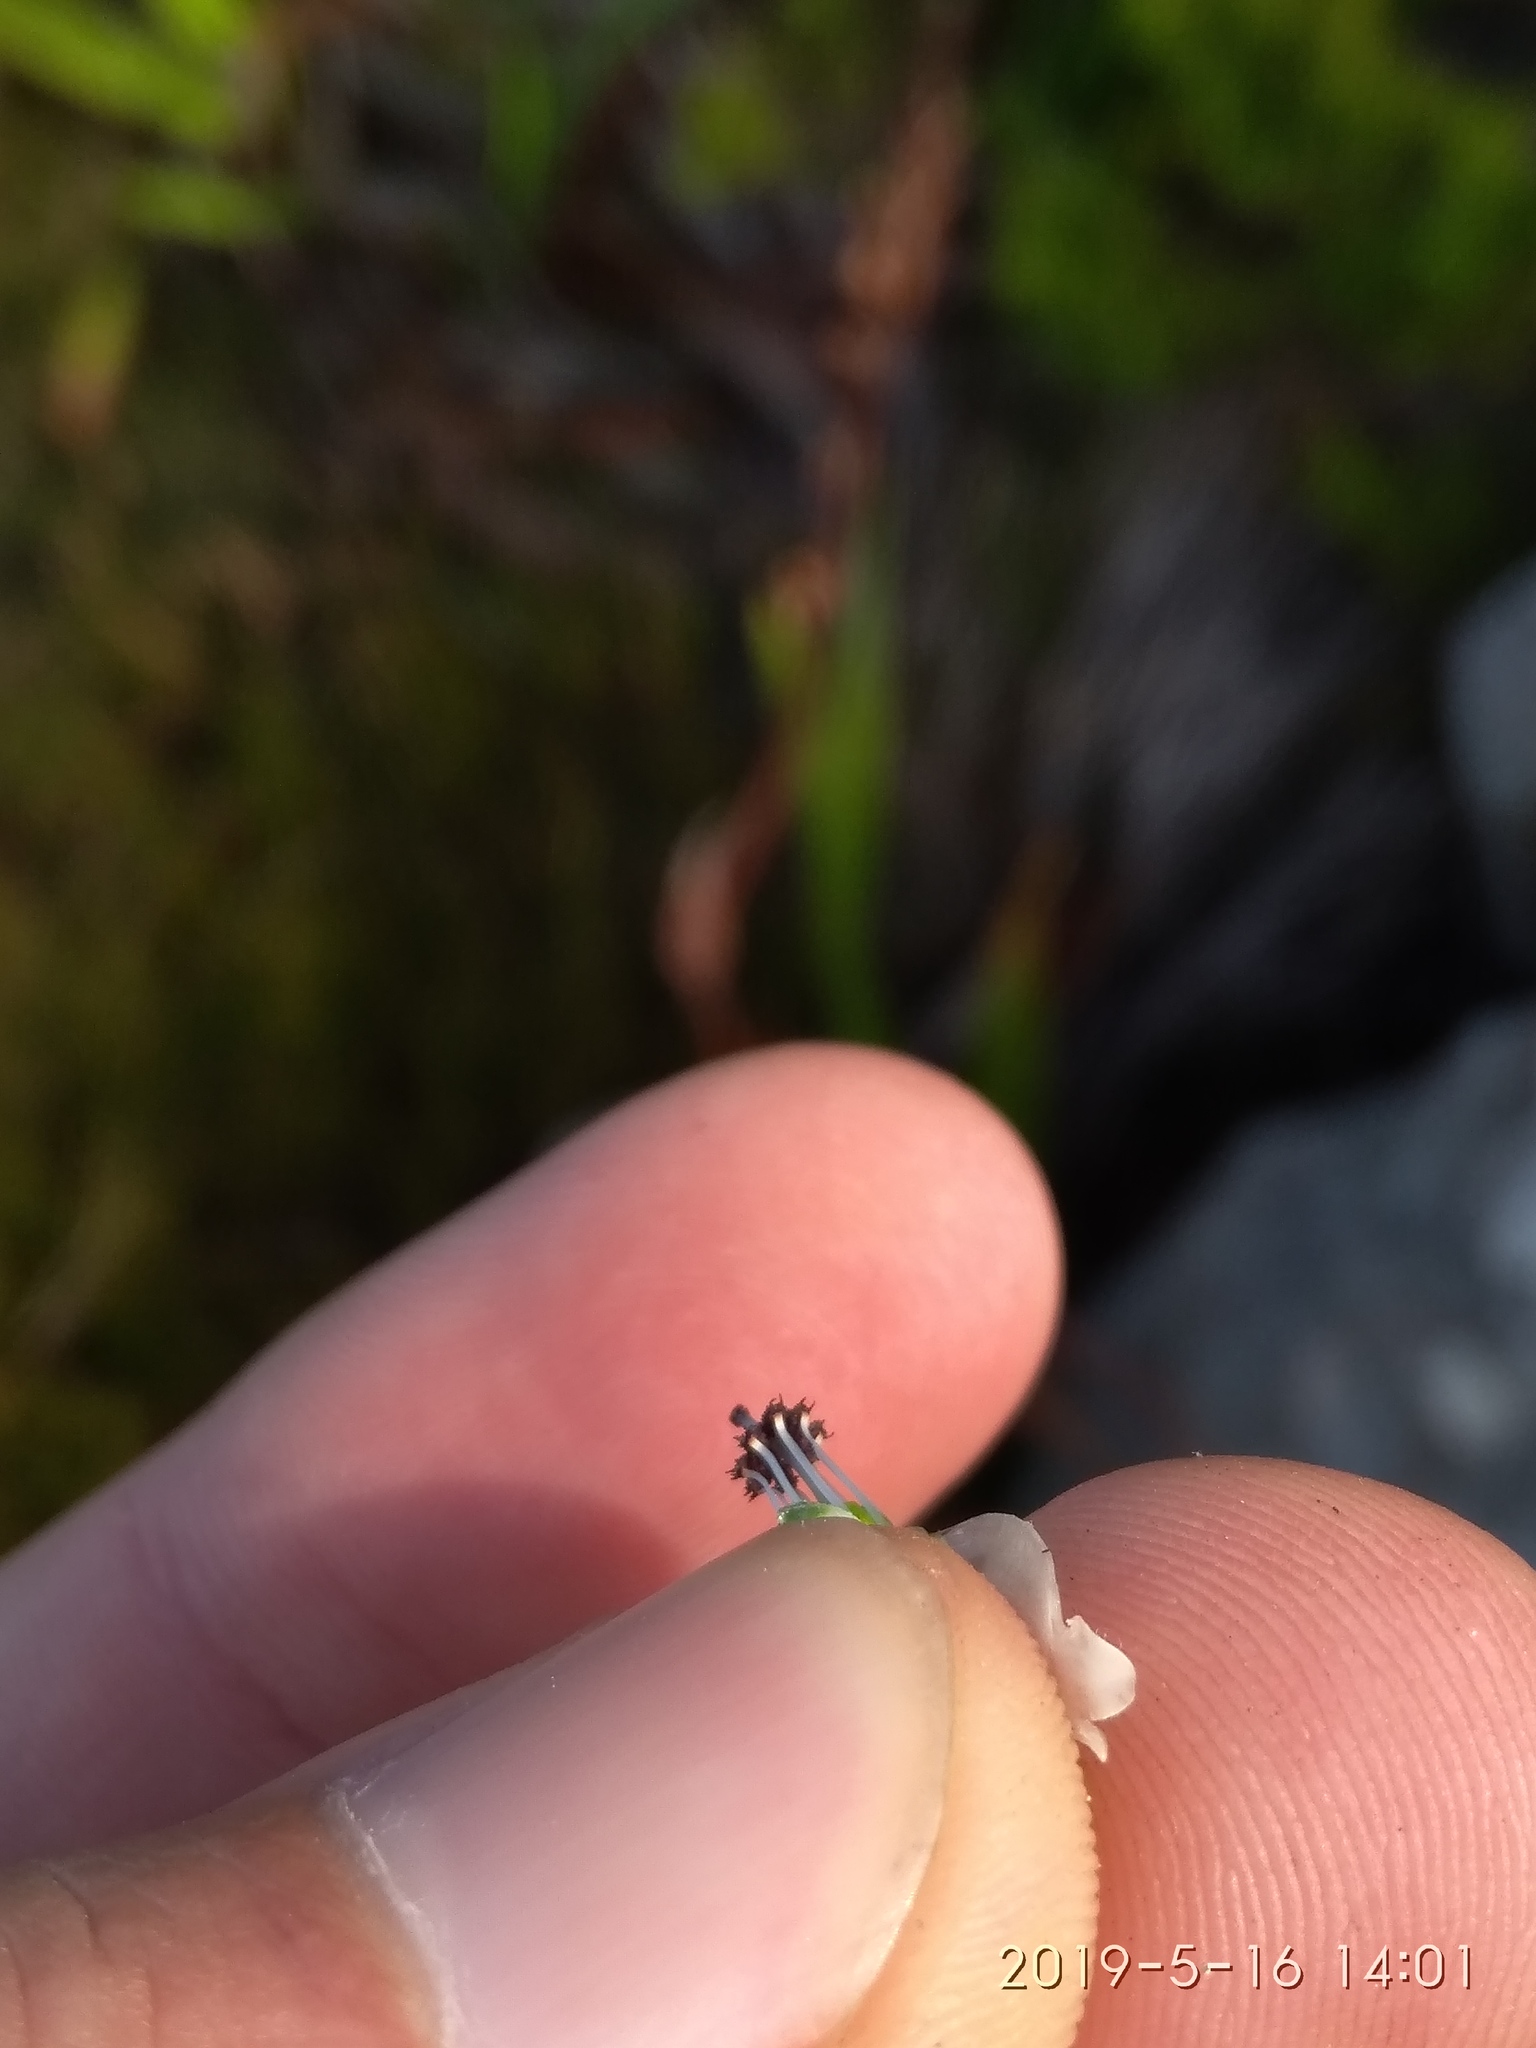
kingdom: Plantae
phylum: Tracheophyta
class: Magnoliopsida
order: Ericales
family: Ericaceae
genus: Erica
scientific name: Erica physodes
